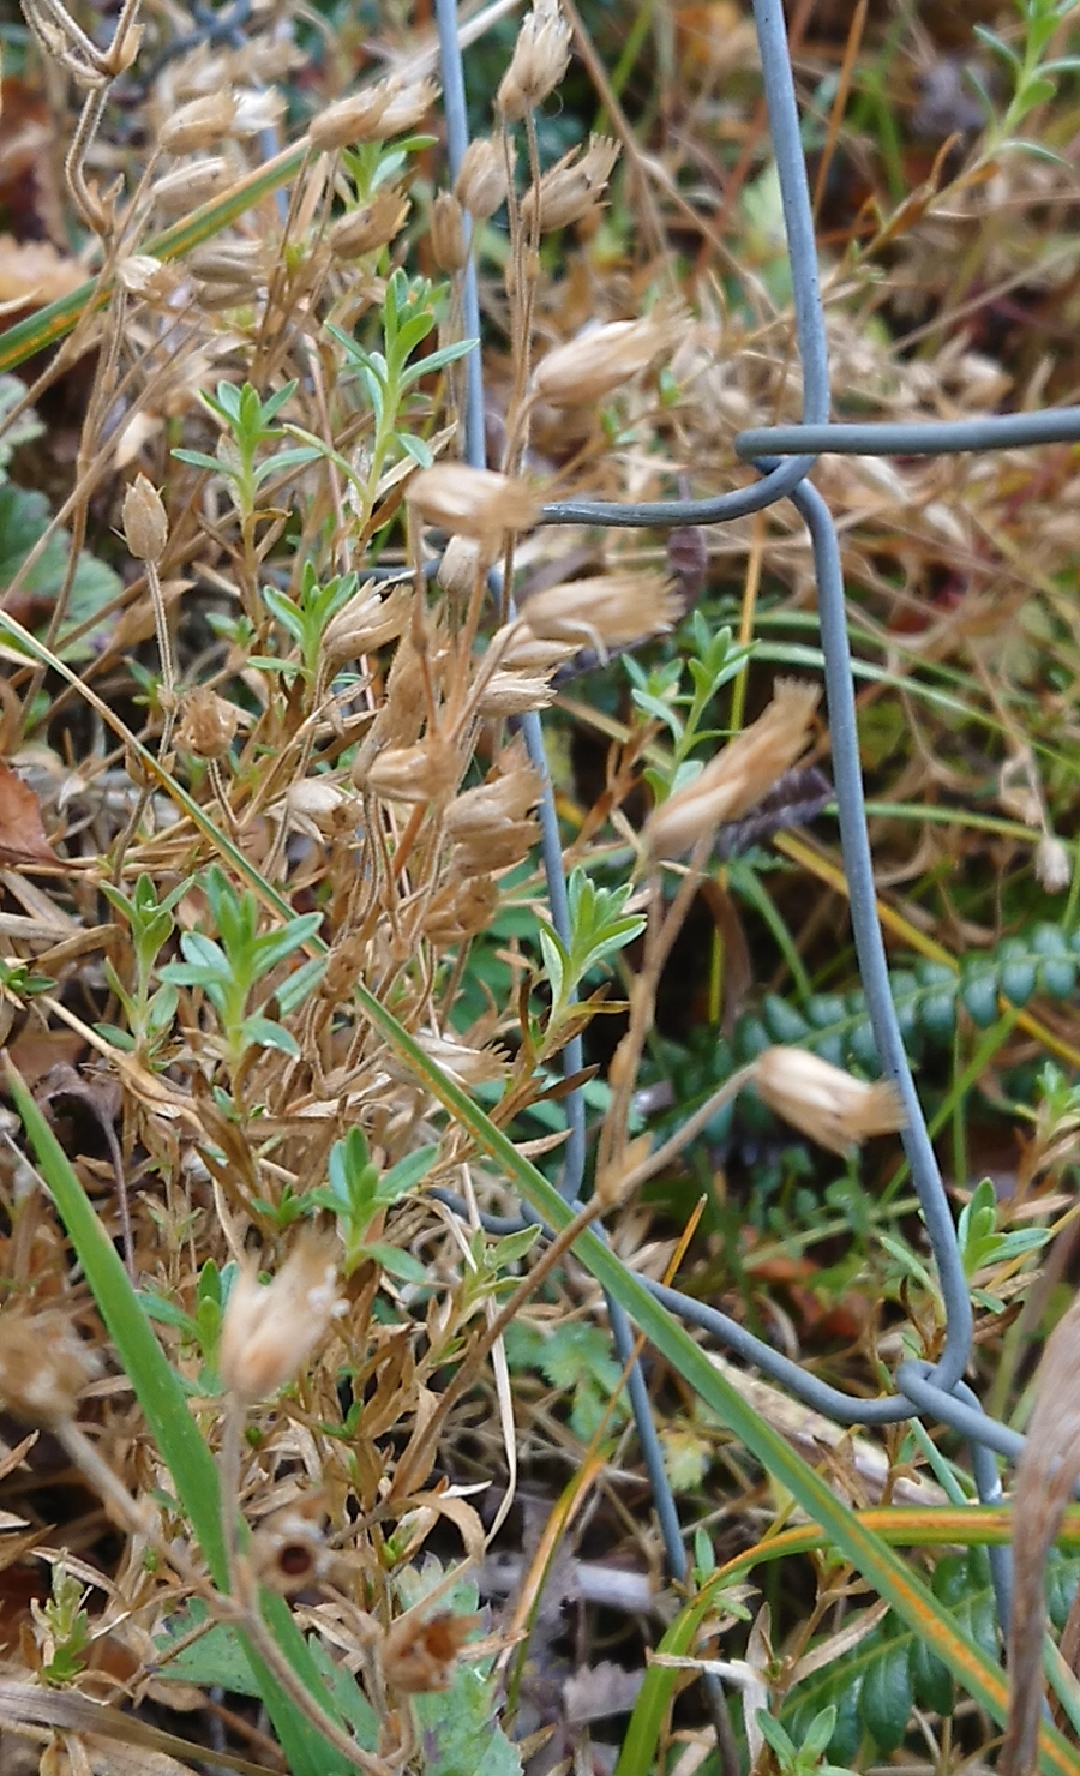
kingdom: Plantae
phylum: Tracheophyta
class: Magnoliopsida
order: Caryophyllales
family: Caryophyllaceae
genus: Cerastium
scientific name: Cerastium arvense
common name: Field mouse-ear
